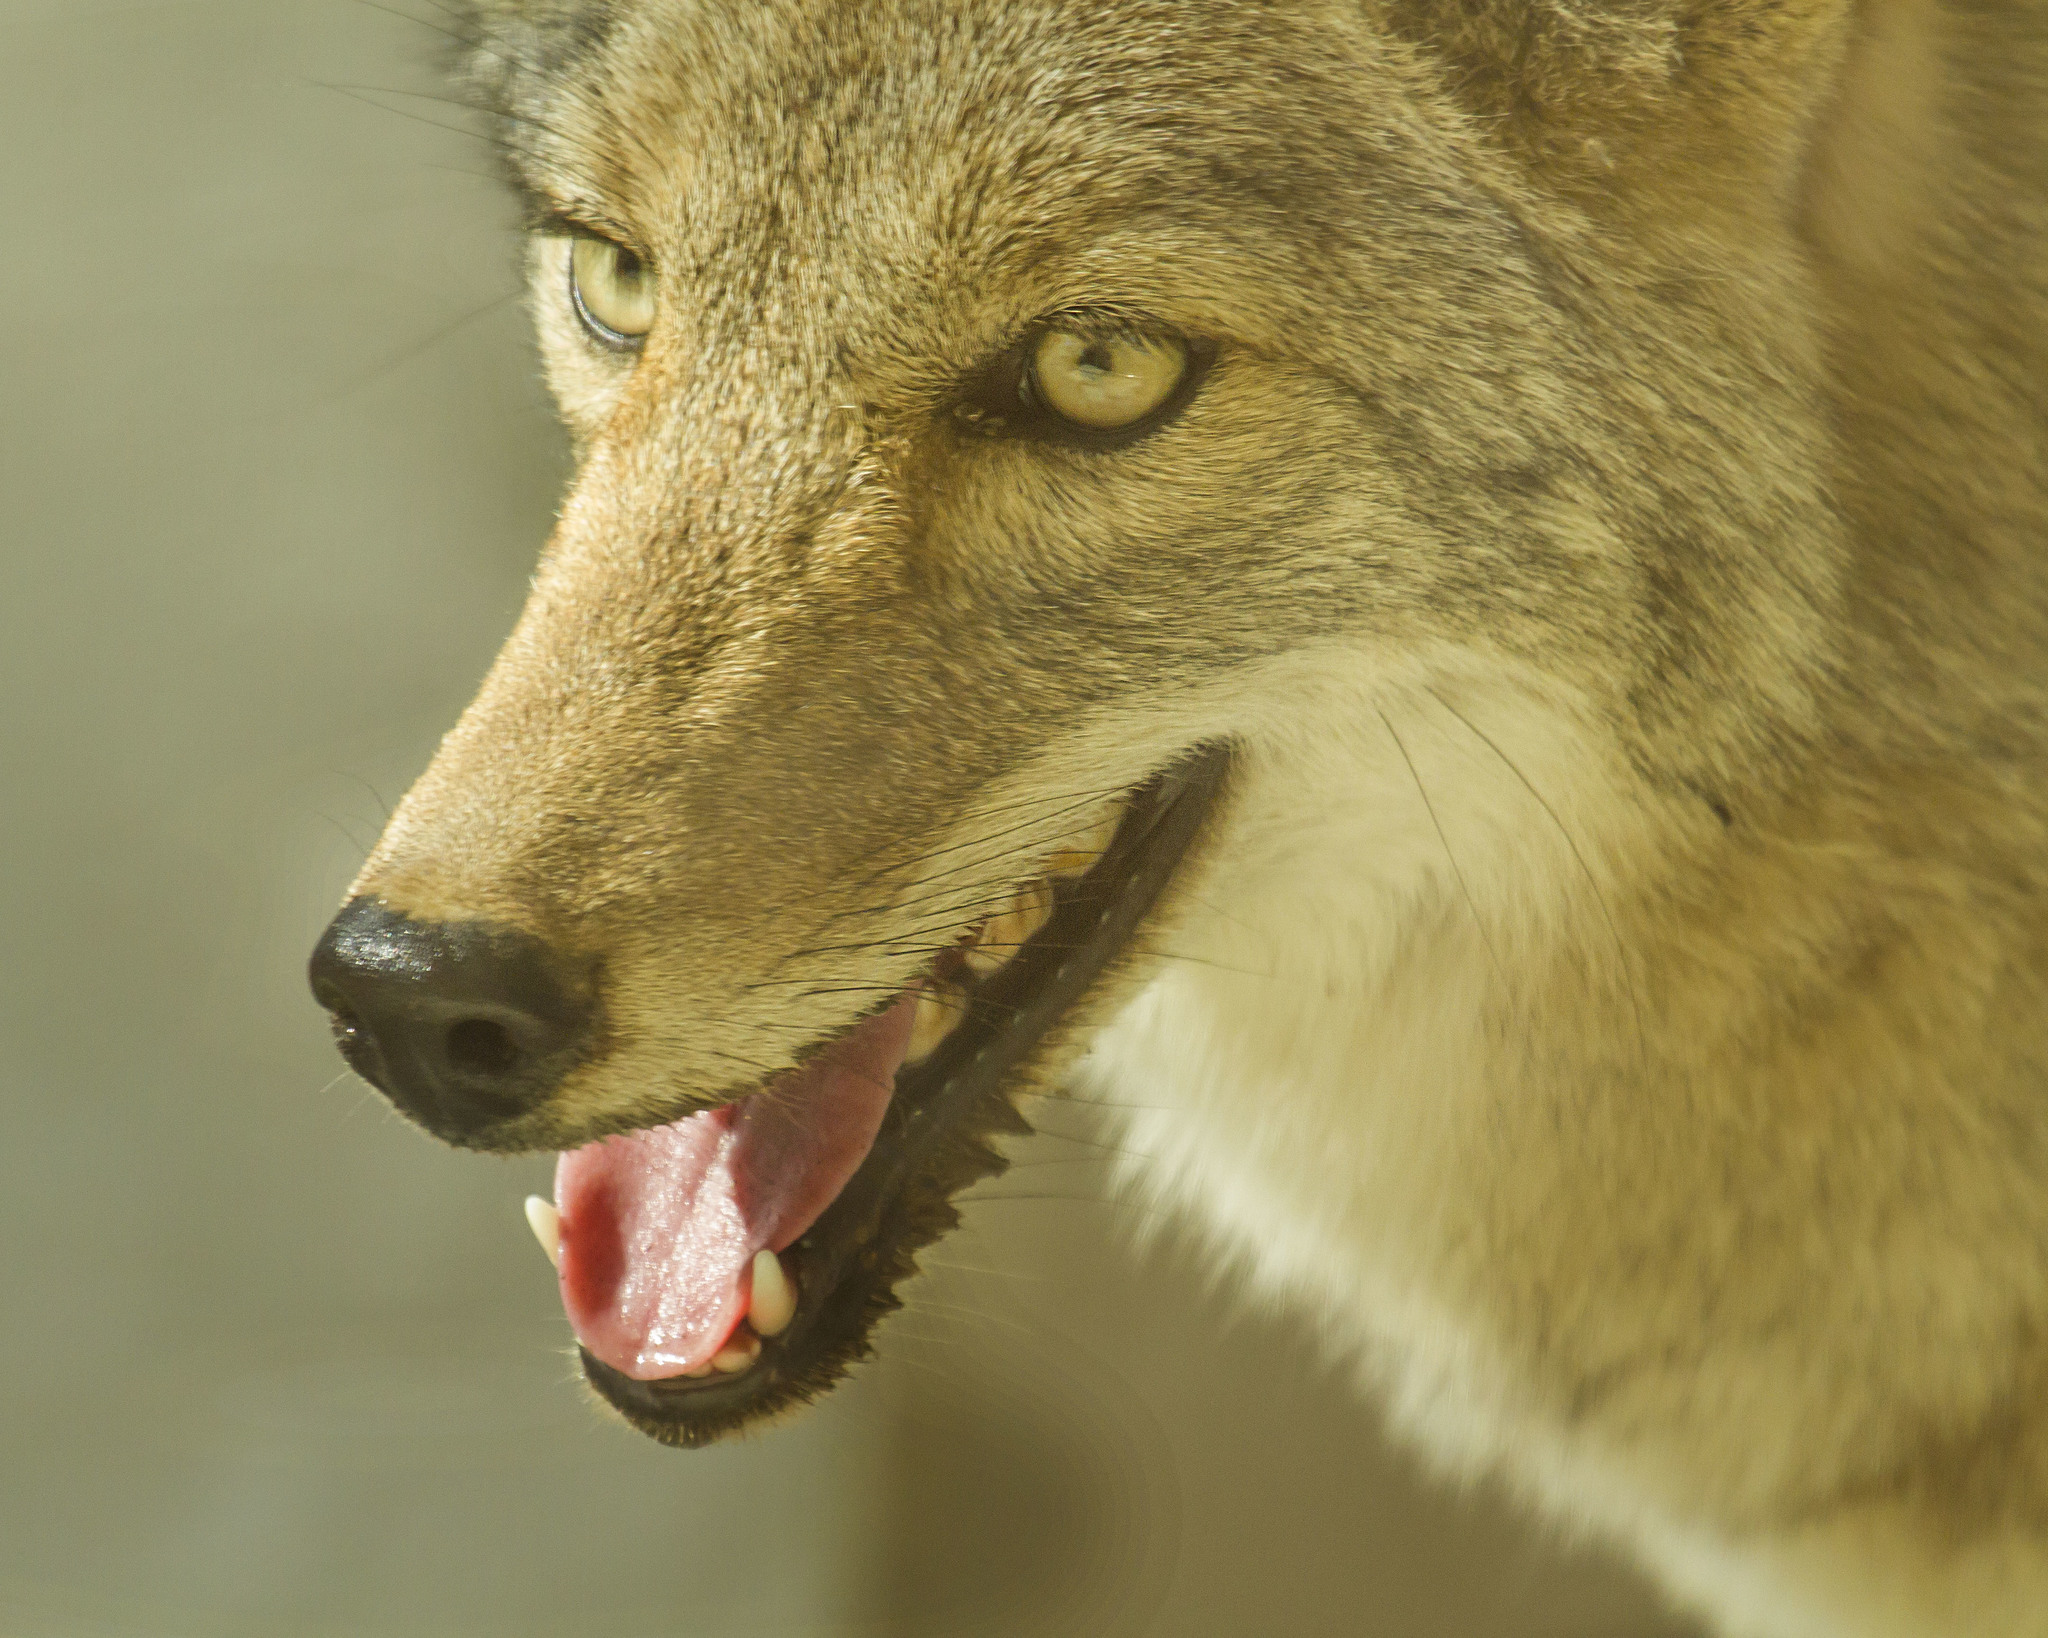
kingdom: Animalia
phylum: Chordata
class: Mammalia
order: Carnivora
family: Canidae
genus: Canis
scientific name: Canis latrans
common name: Coyote
